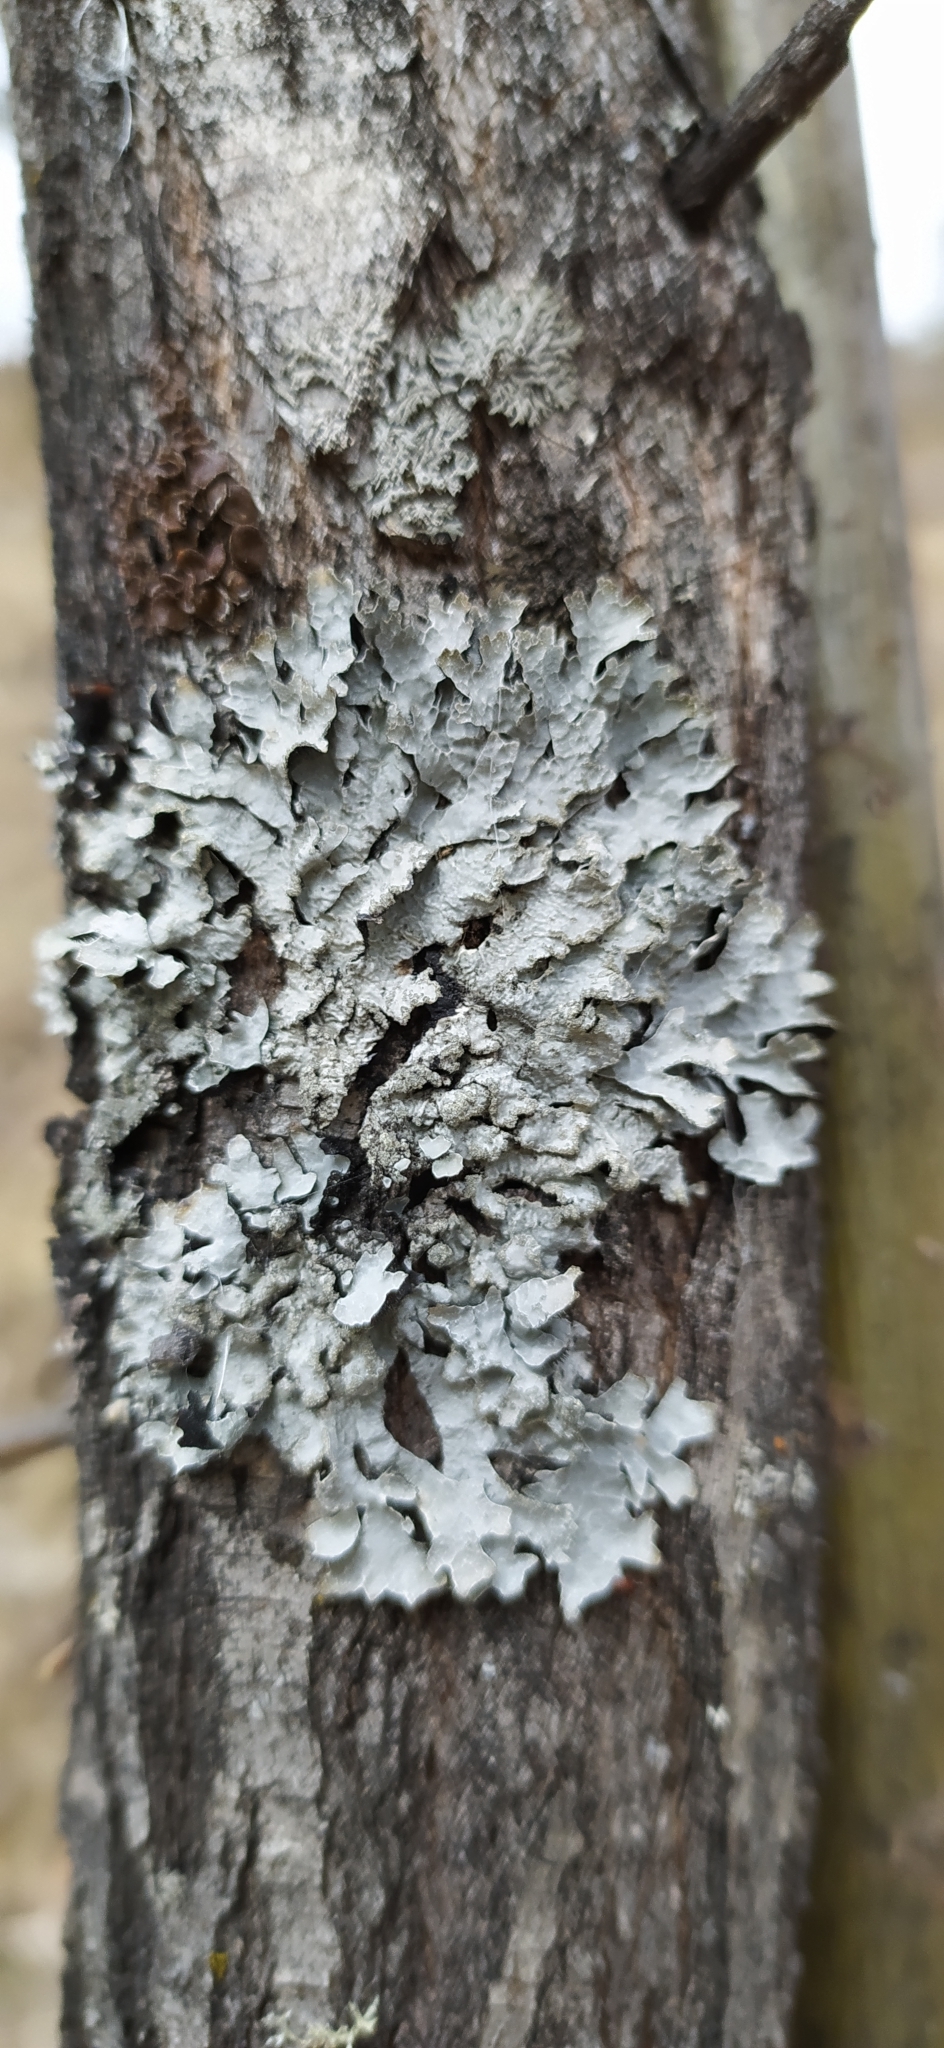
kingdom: Fungi
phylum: Ascomycota
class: Lecanoromycetes
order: Lecanorales
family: Parmeliaceae
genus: Parmelia
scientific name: Parmelia sulcata
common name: Netted shield lichen
